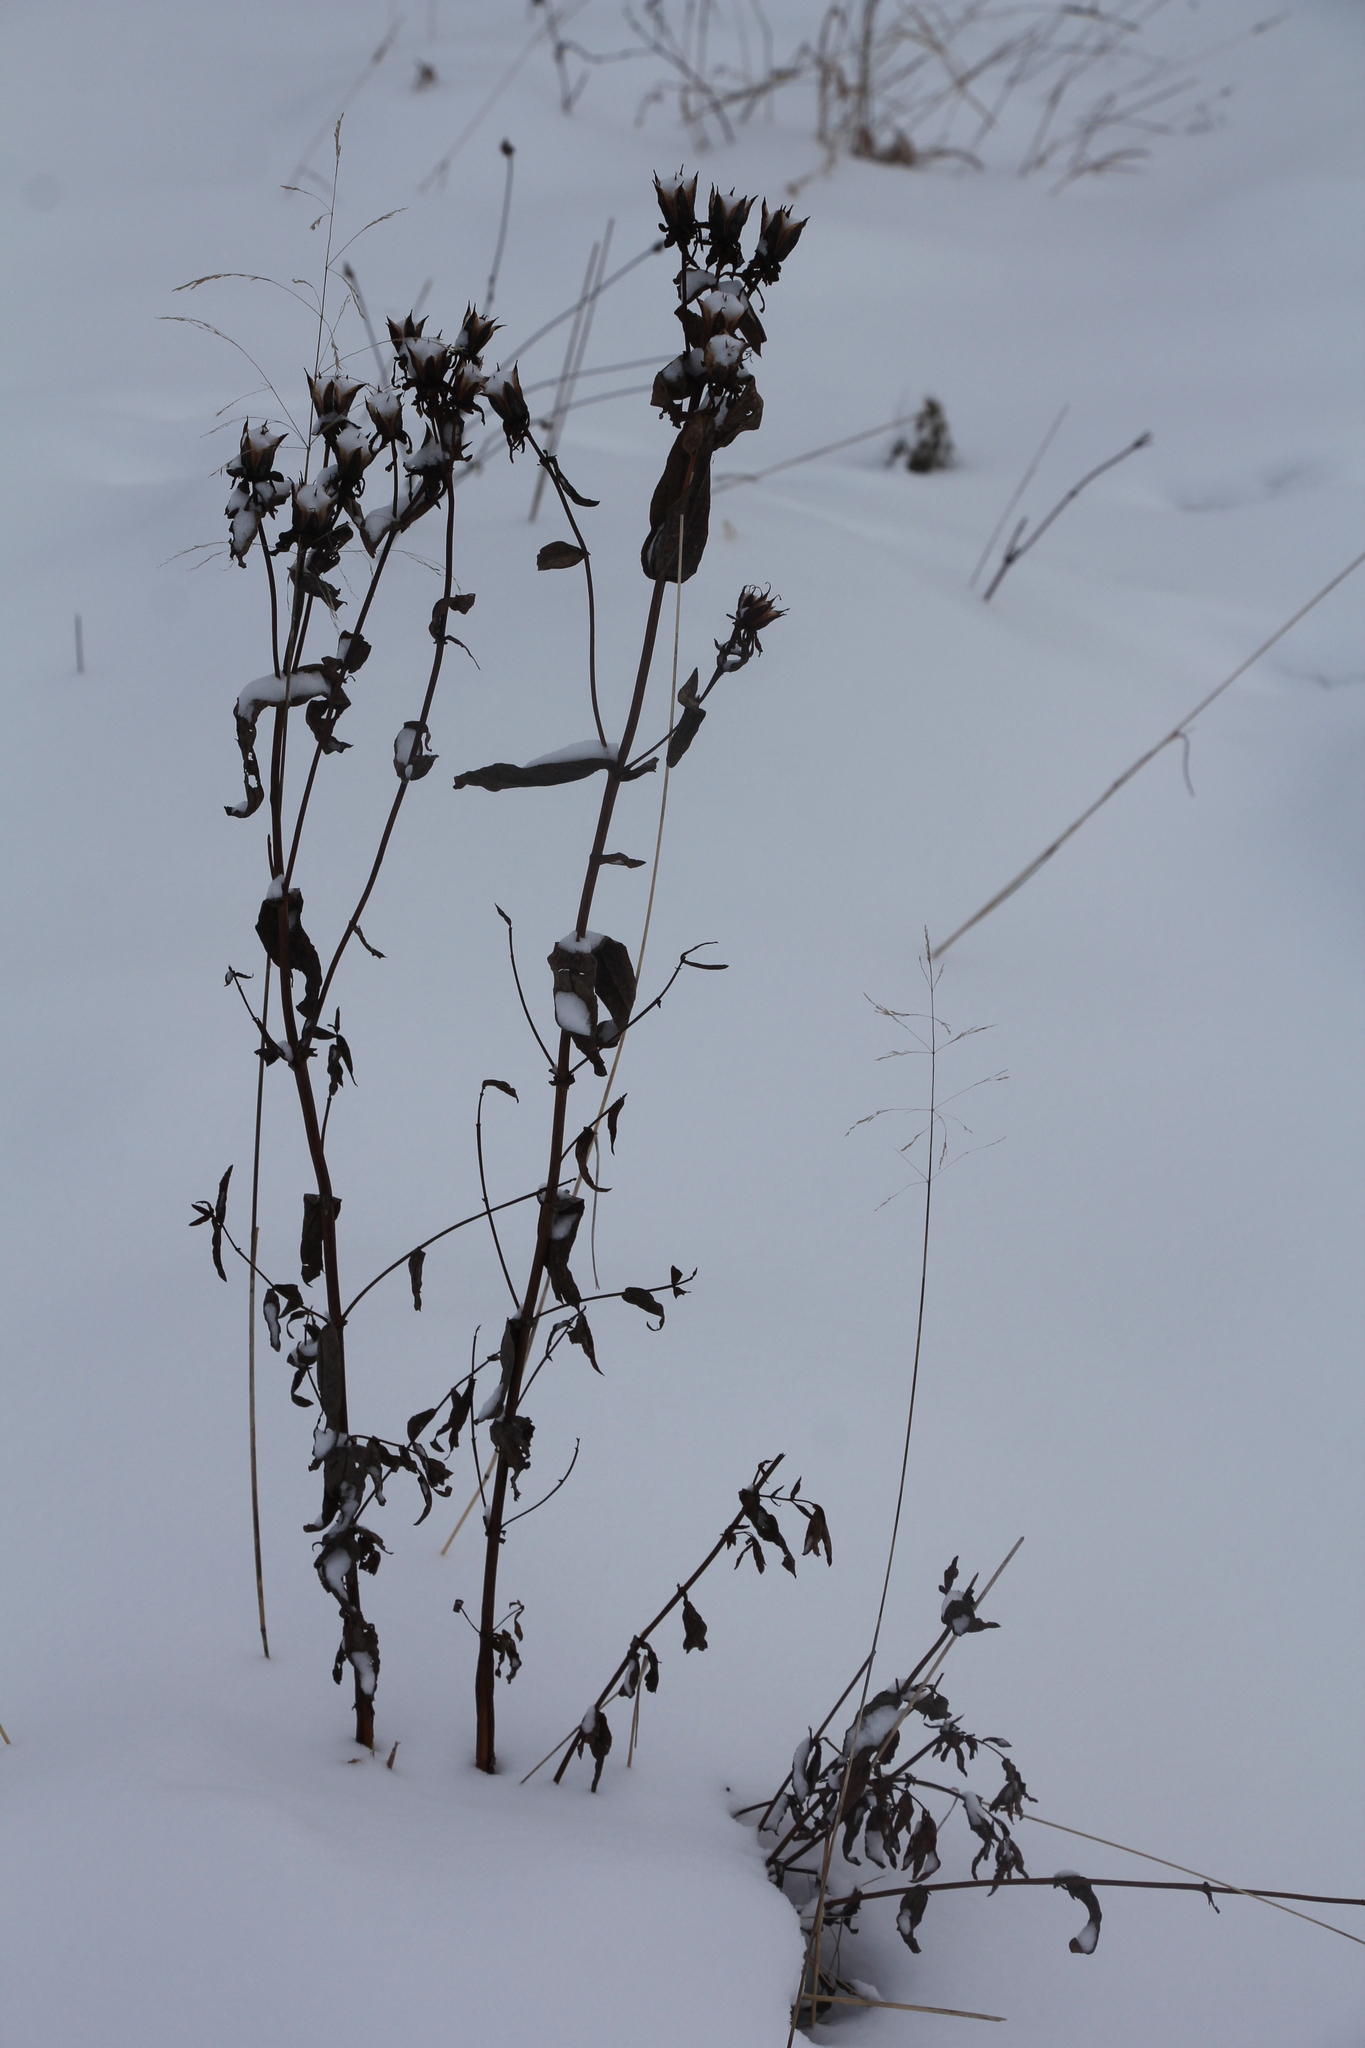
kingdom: Plantae
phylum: Tracheophyta
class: Magnoliopsida
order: Malpighiales
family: Hypericaceae
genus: Hypericum
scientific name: Hypericum ascyron
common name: Giant st. john's-wort
